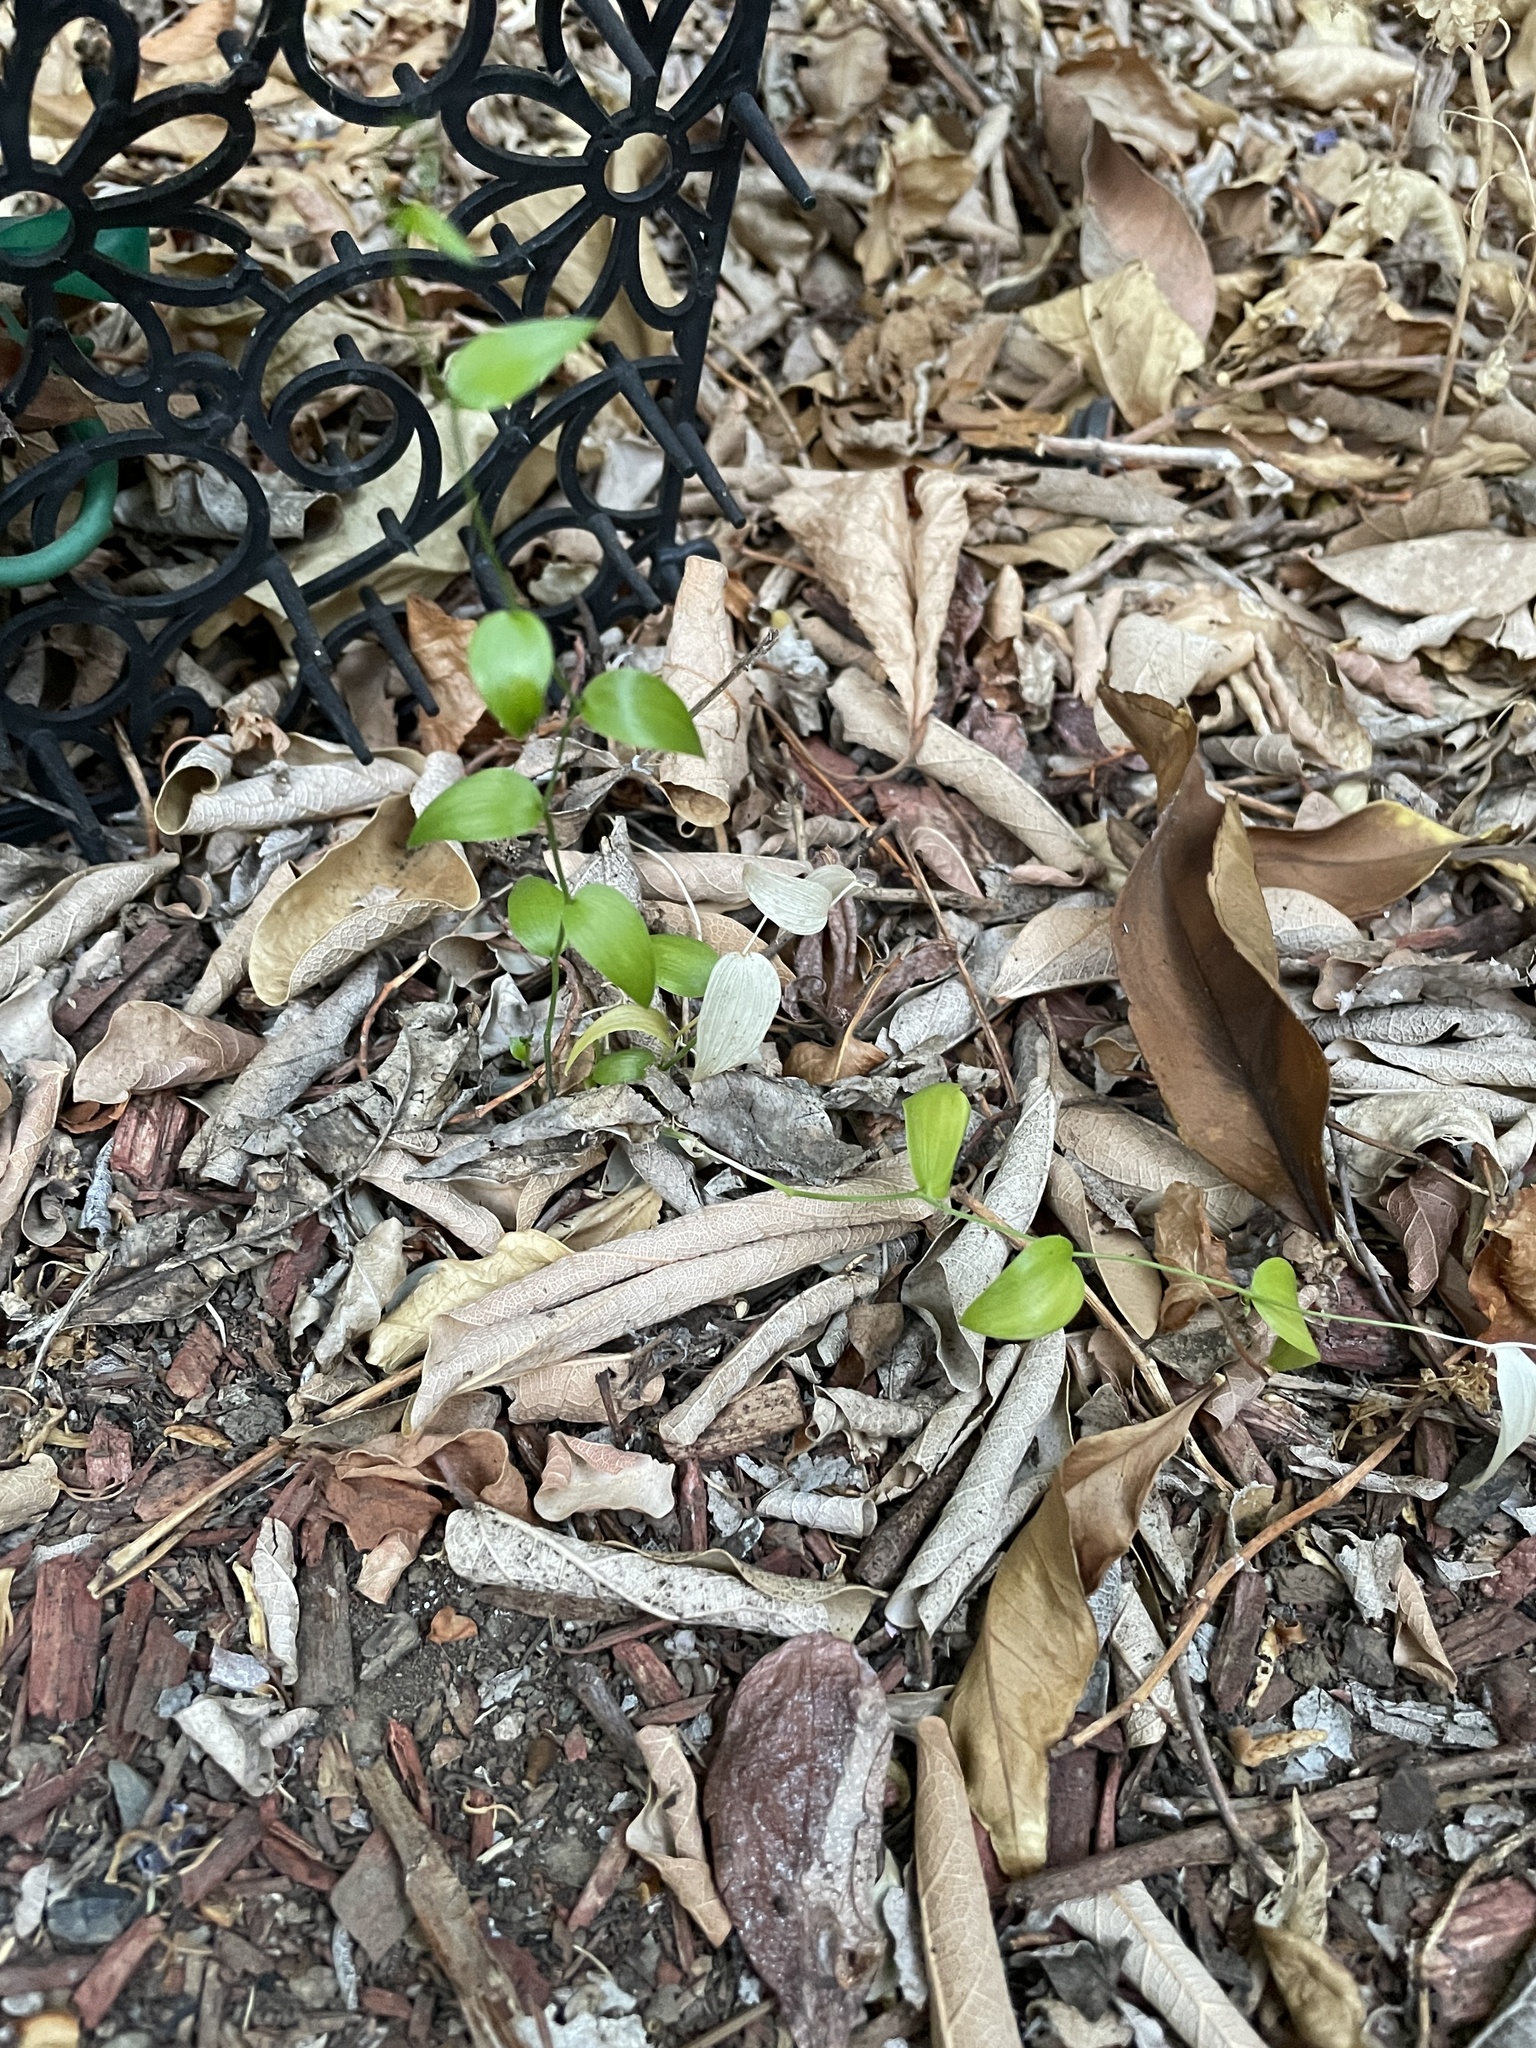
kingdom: Plantae
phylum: Tracheophyta
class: Liliopsida
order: Asparagales
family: Asparagaceae
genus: Asparagus
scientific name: Asparagus asparagoides
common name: African asparagus fern
